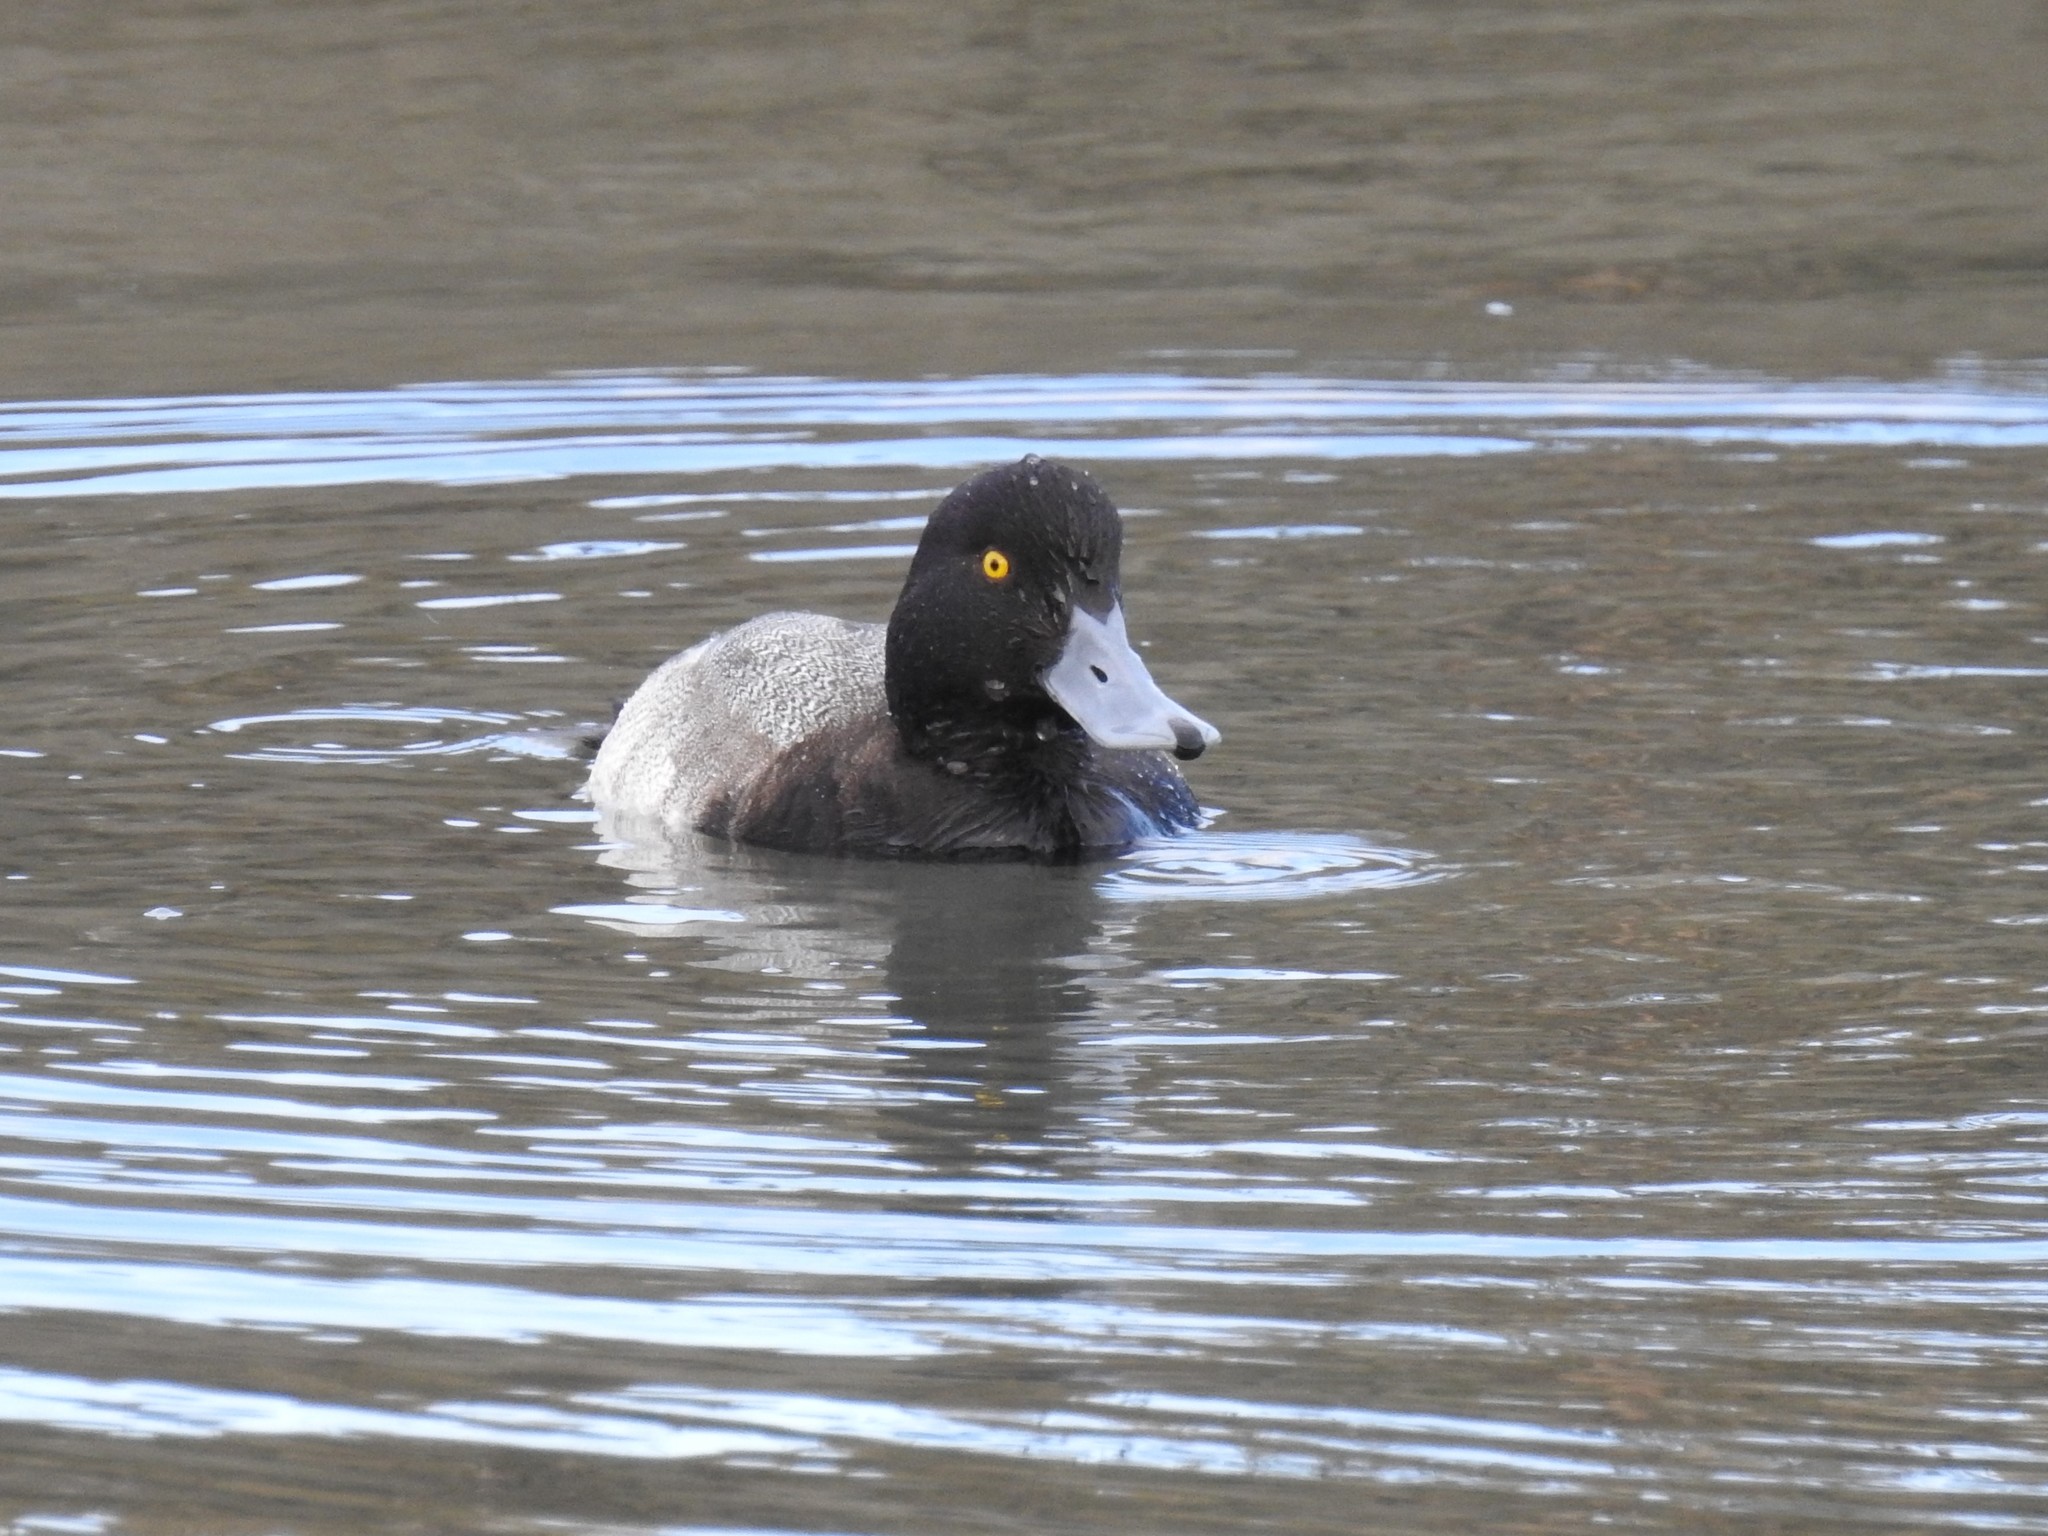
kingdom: Animalia
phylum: Chordata
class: Aves
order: Anseriformes
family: Anatidae
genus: Aythya
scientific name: Aythya marila
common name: Greater scaup
